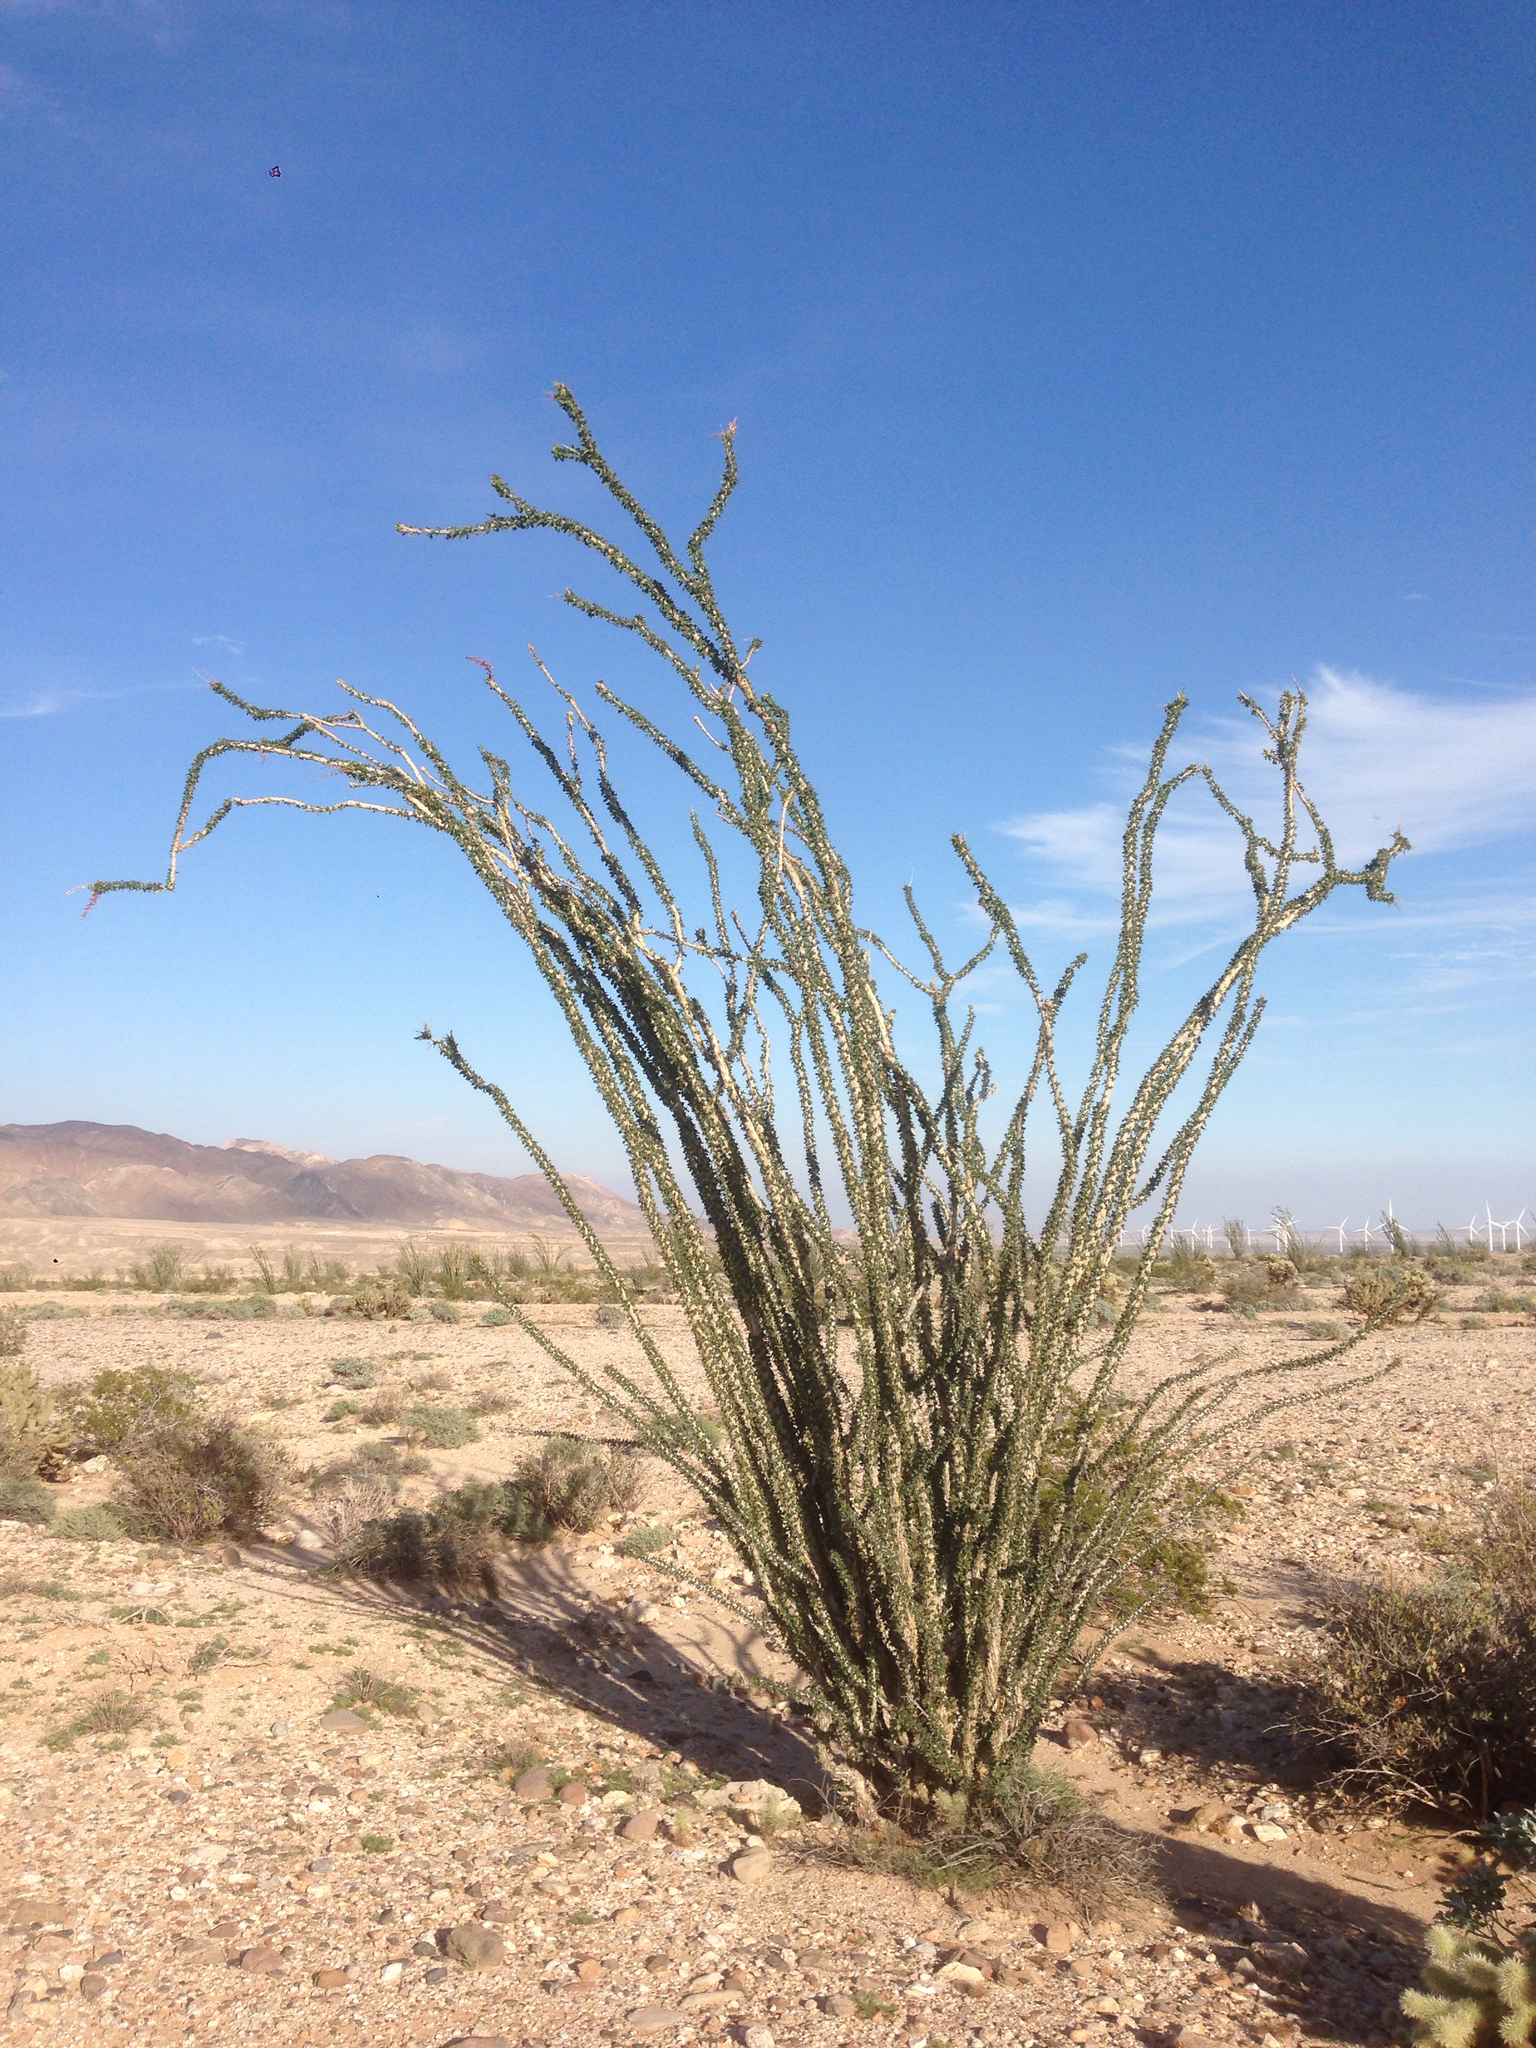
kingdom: Plantae
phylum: Tracheophyta
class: Magnoliopsida
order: Ericales
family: Fouquieriaceae
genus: Fouquieria
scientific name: Fouquieria splendens
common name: Vine-cactus
